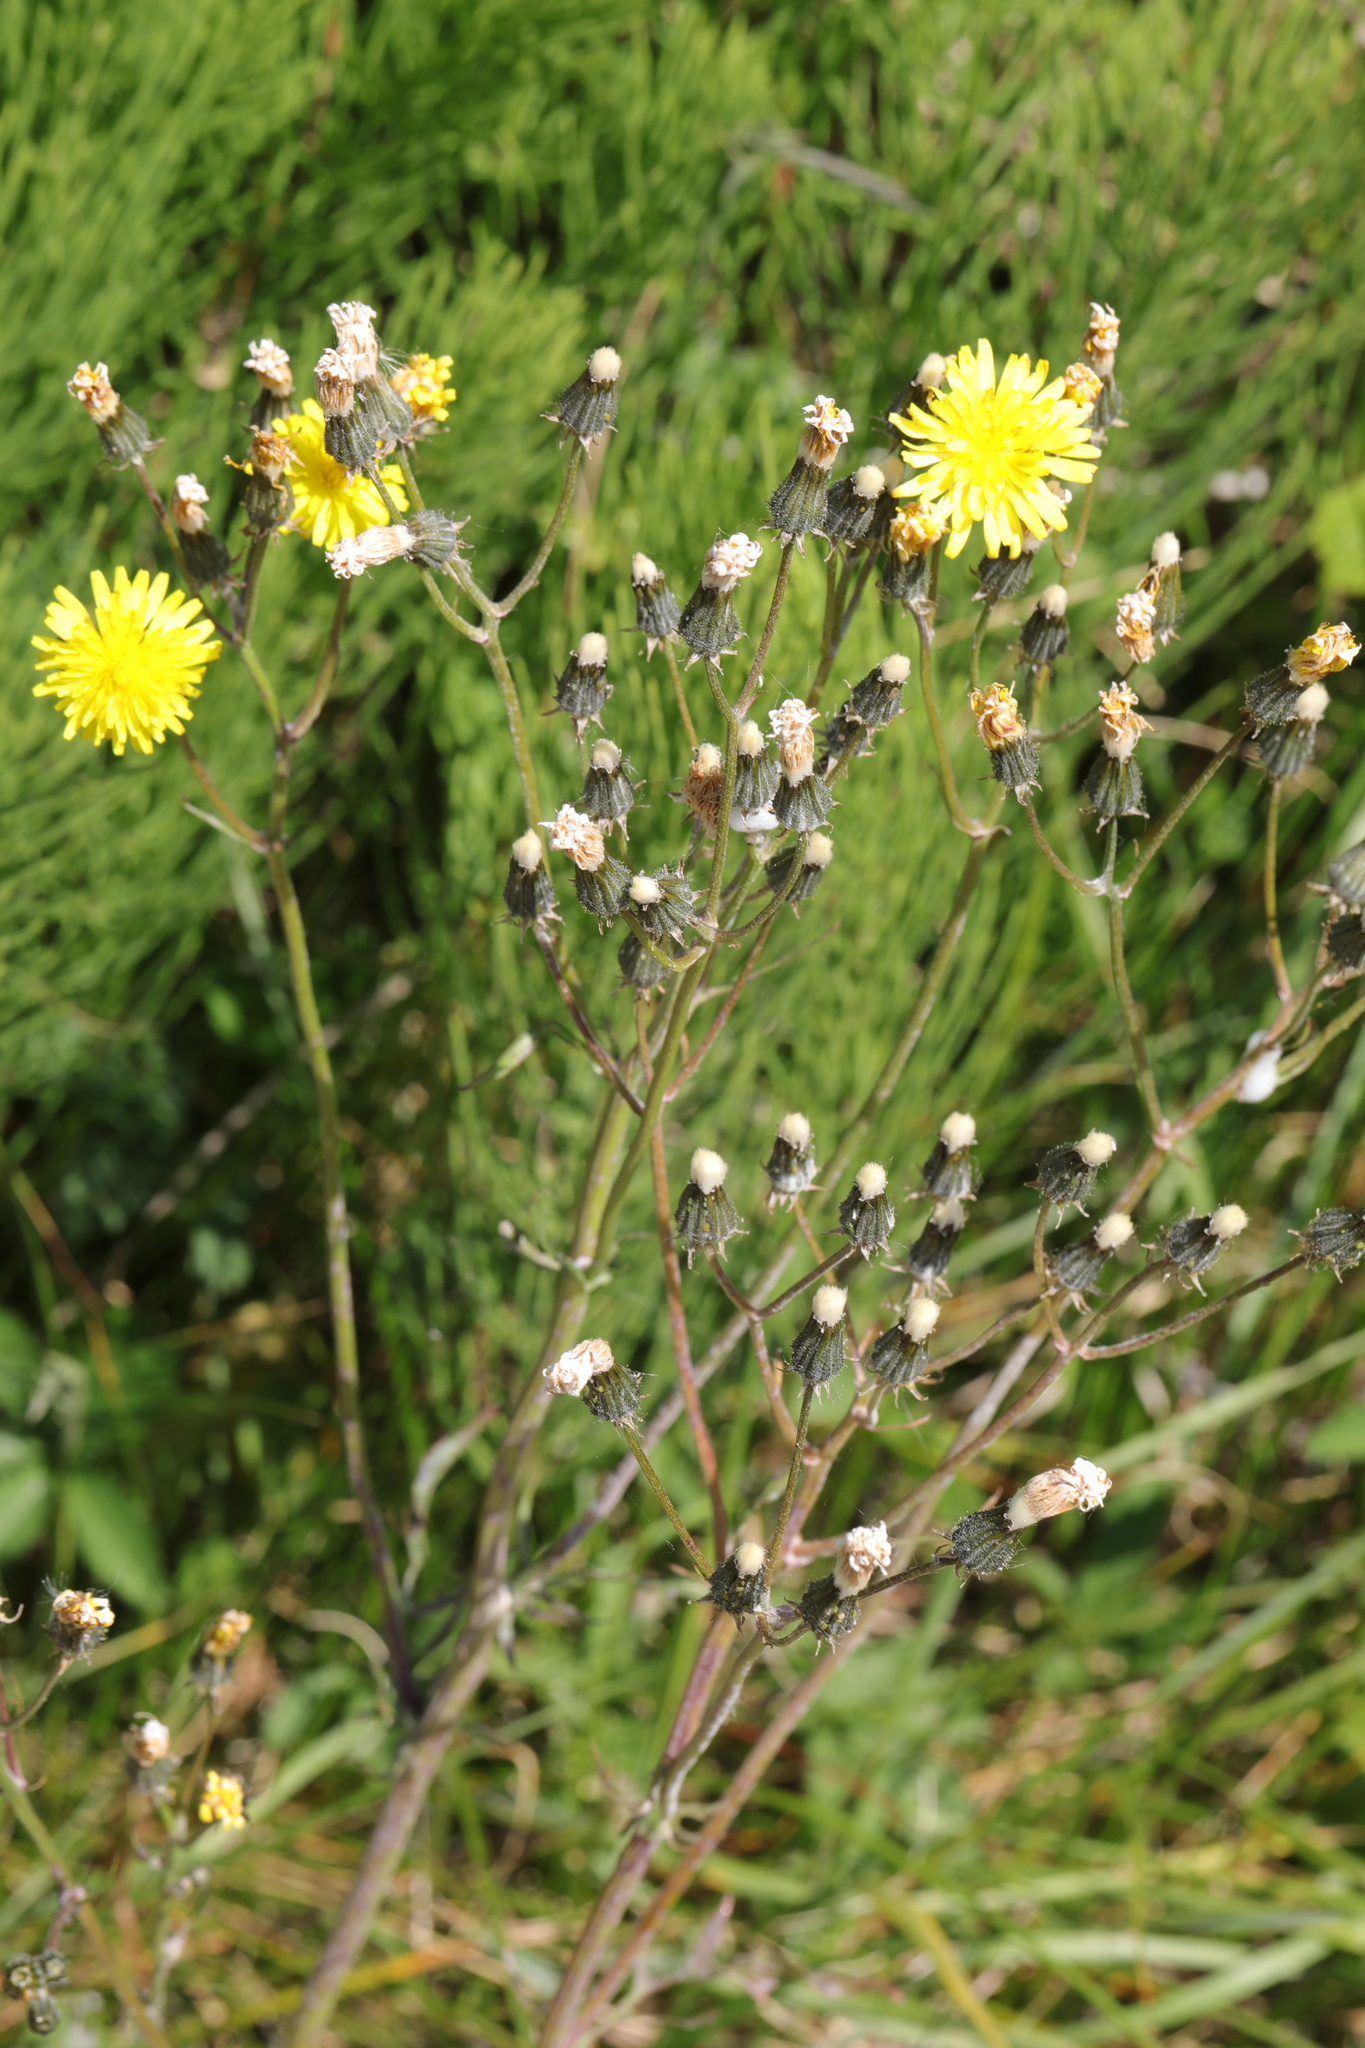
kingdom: Plantae
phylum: Tracheophyta
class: Magnoliopsida
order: Asterales
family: Asteraceae
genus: Crepis
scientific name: Crepis vesicaria
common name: Beaked hawksbeard
